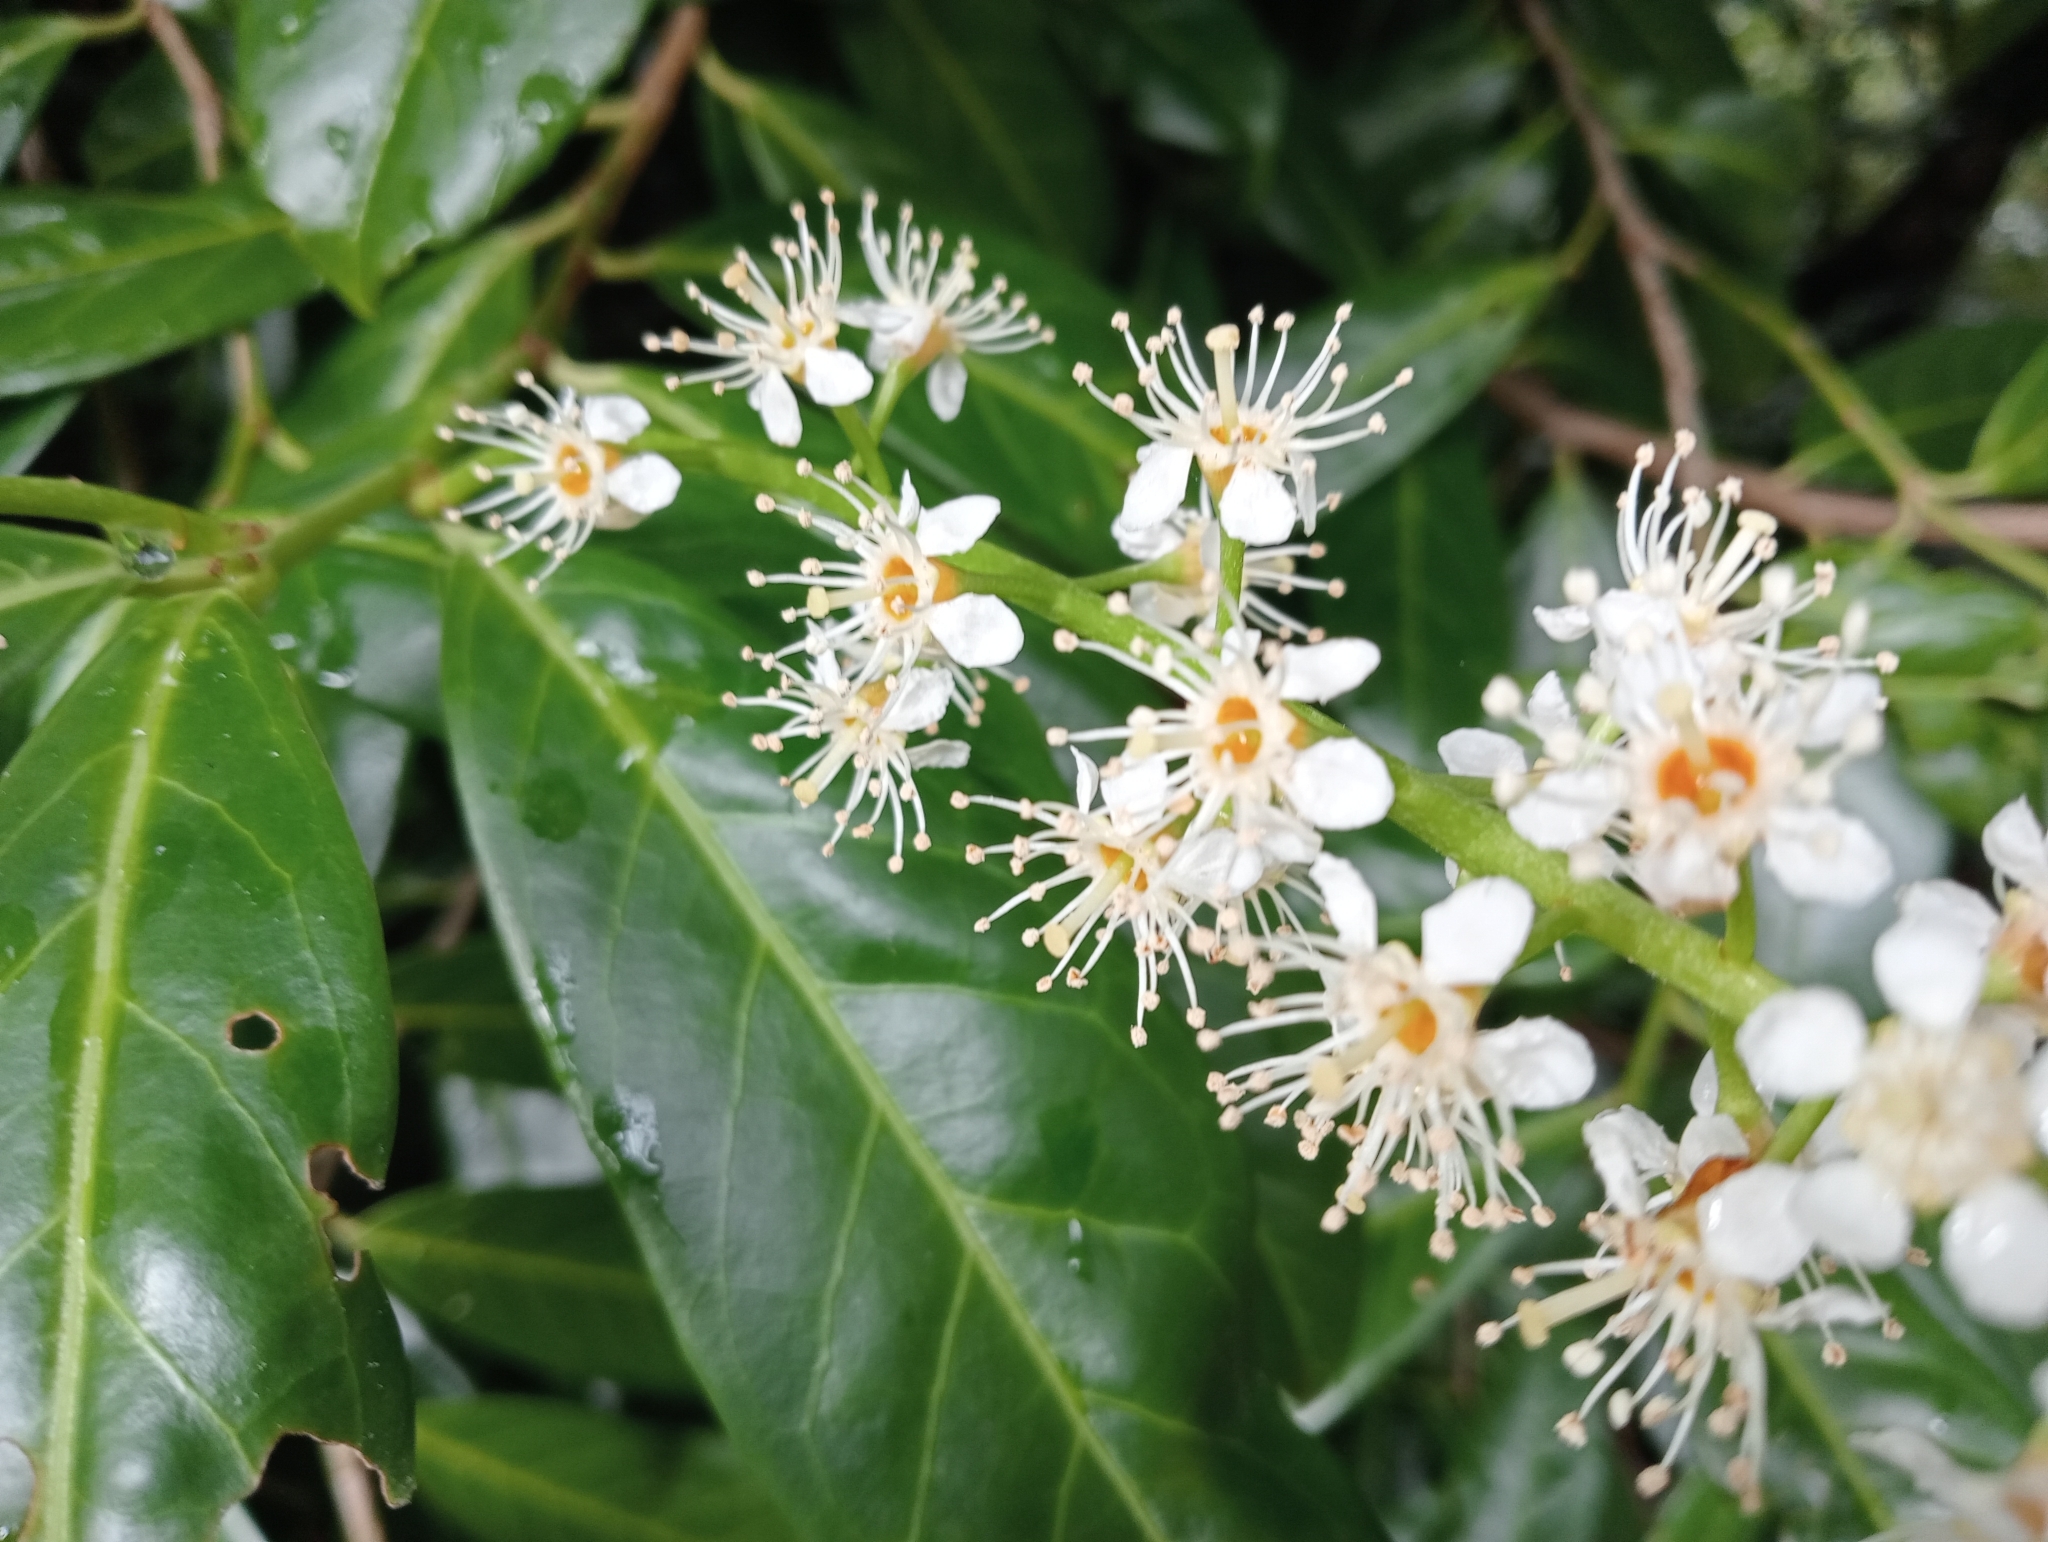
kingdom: Plantae
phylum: Tracheophyta
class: Magnoliopsida
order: Rosales
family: Rosaceae
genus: Prunus
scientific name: Prunus laurocerasus
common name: Cherry laurel
